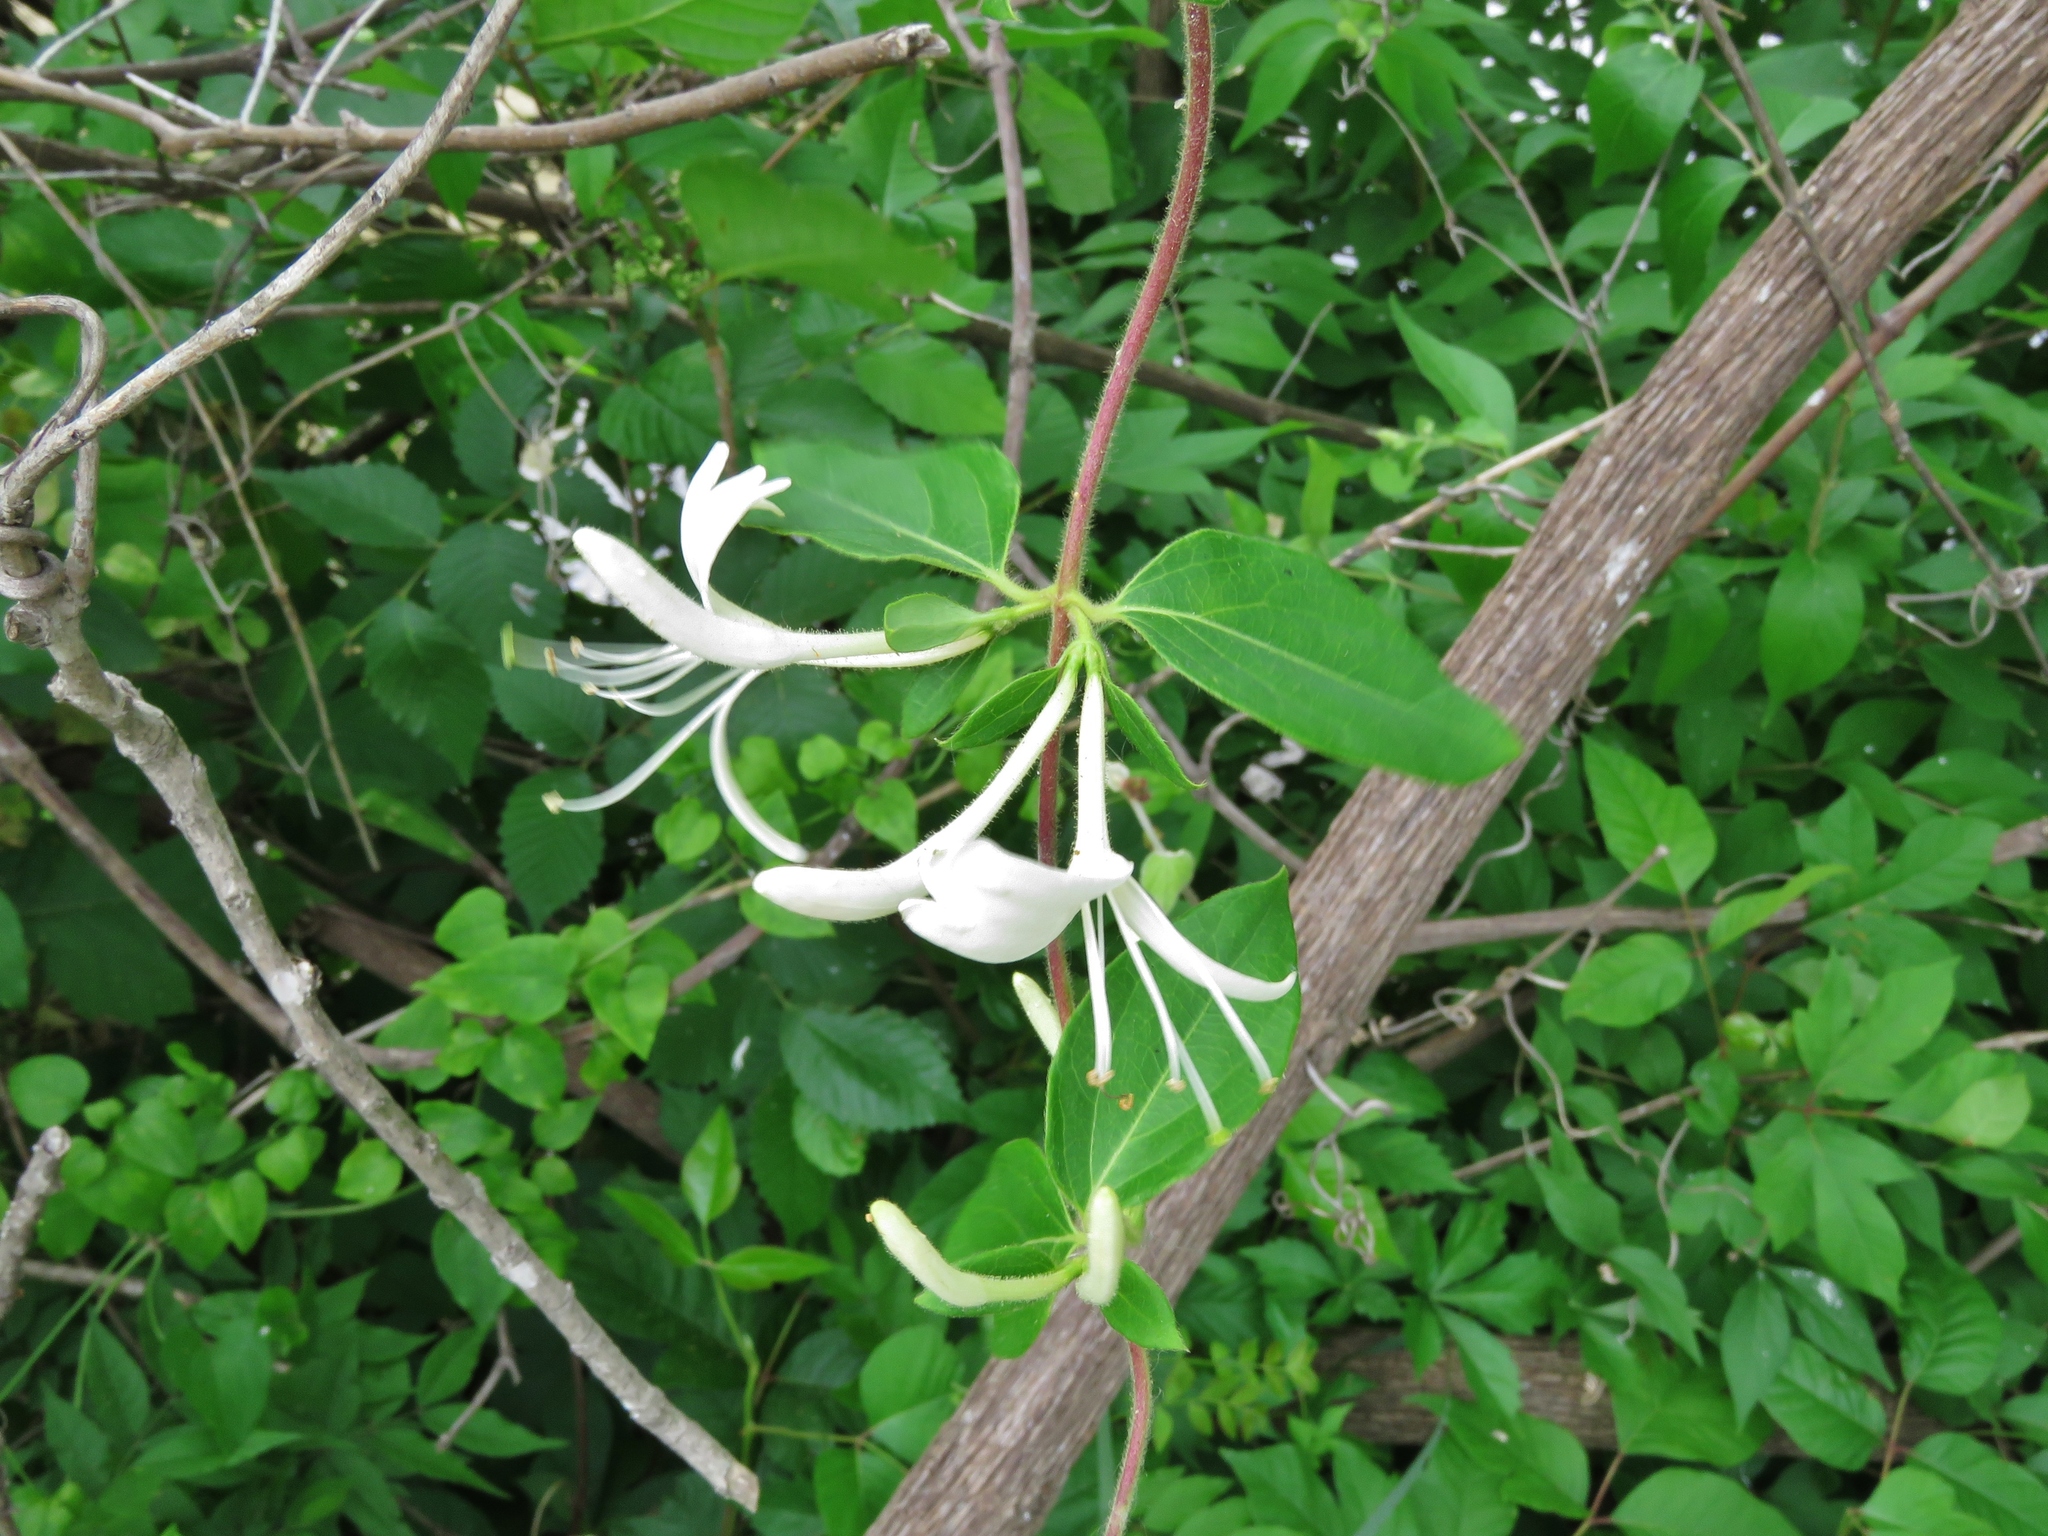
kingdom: Plantae
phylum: Tracheophyta
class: Magnoliopsida
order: Dipsacales
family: Caprifoliaceae
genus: Lonicera
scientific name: Lonicera japonica
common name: Japanese honeysuckle
